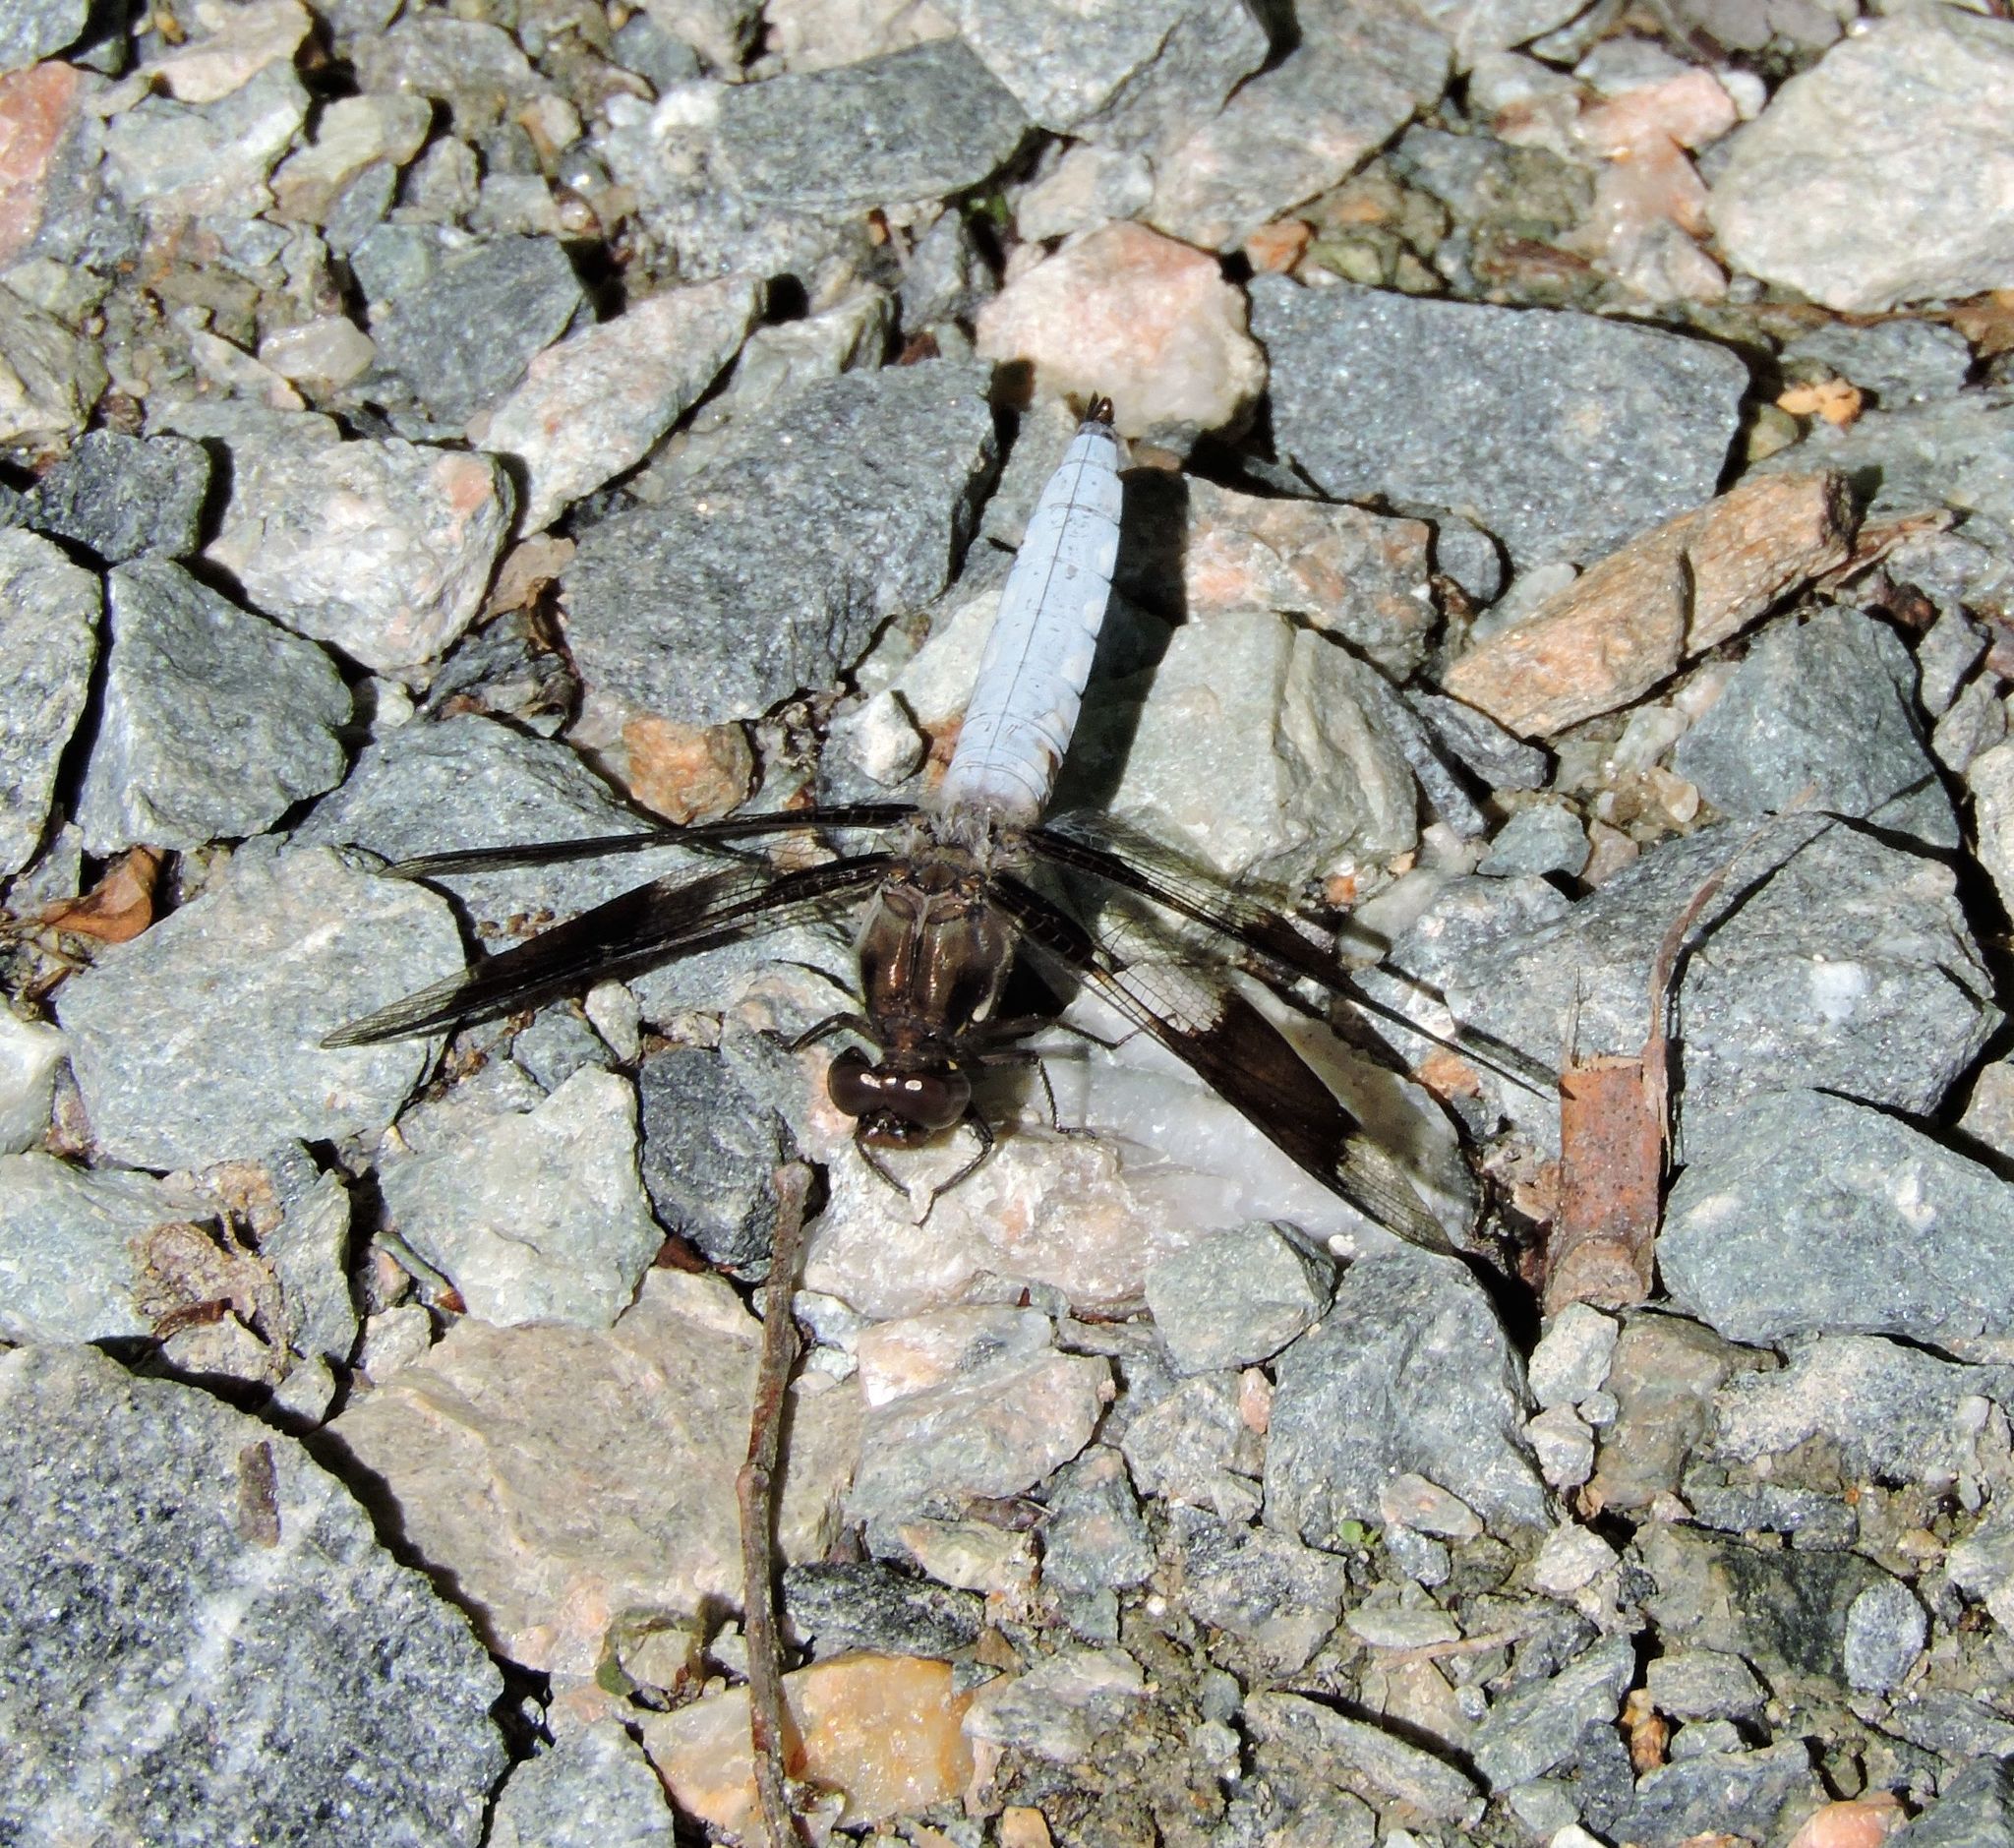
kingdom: Animalia
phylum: Arthropoda
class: Insecta
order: Odonata
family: Libellulidae
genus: Plathemis
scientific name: Plathemis lydia
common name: Common whitetail
